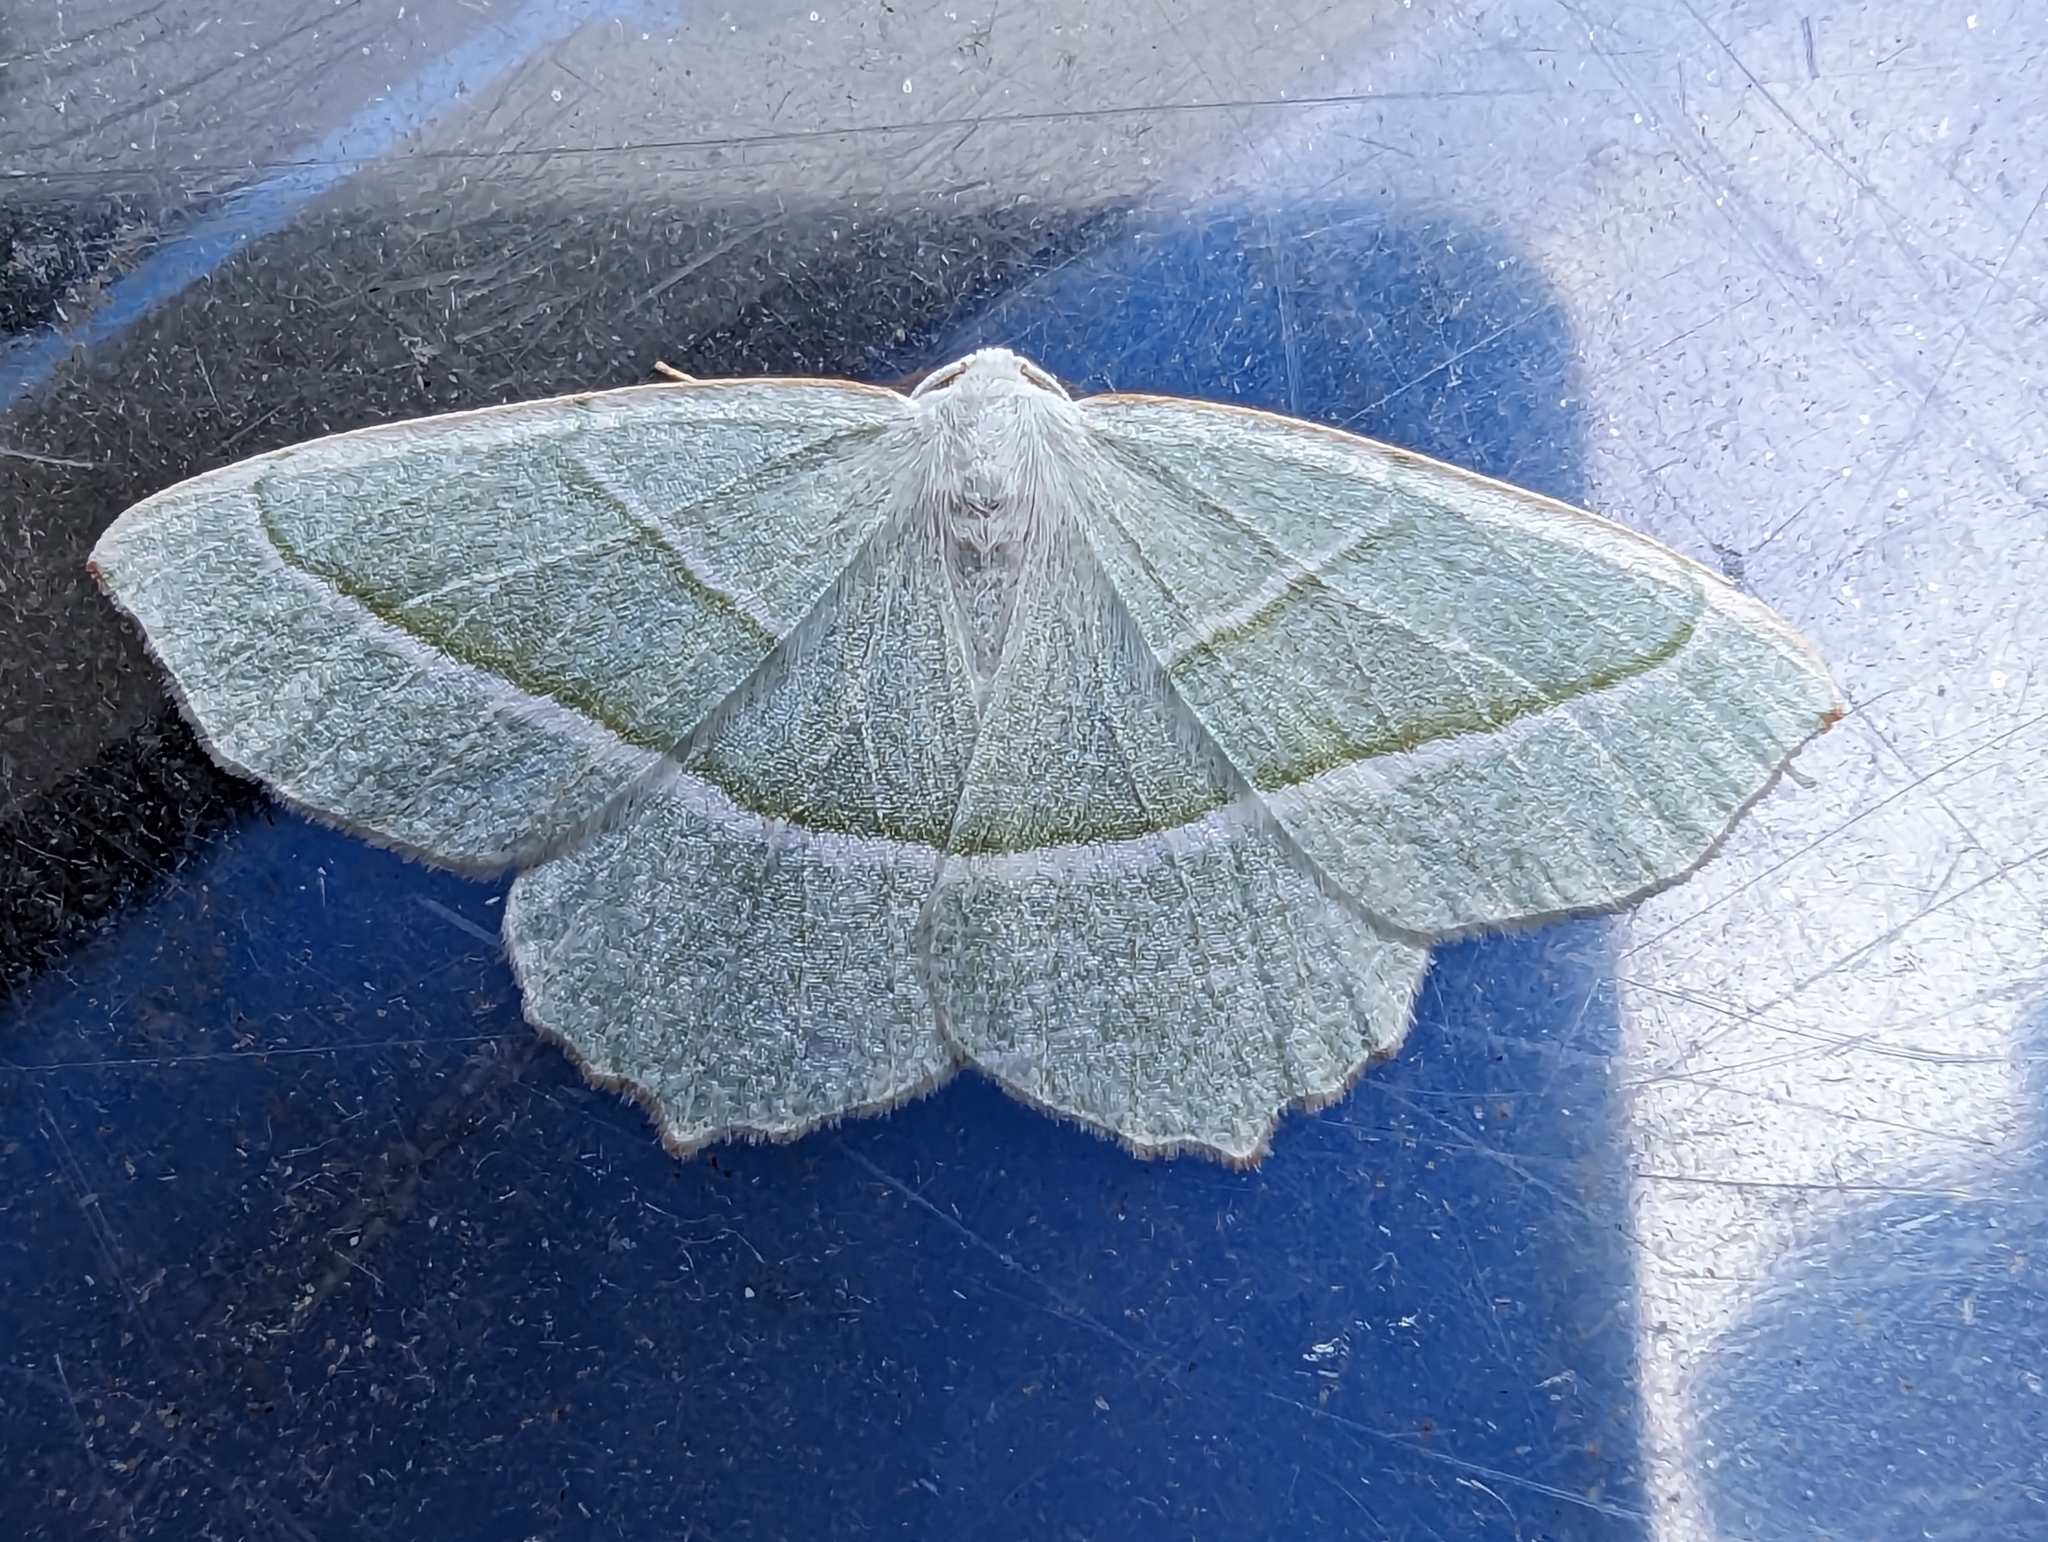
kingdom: Animalia
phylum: Arthropoda
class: Insecta
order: Lepidoptera
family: Geometridae
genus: Campaea
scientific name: Campaea margaritaria
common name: Light emerald
